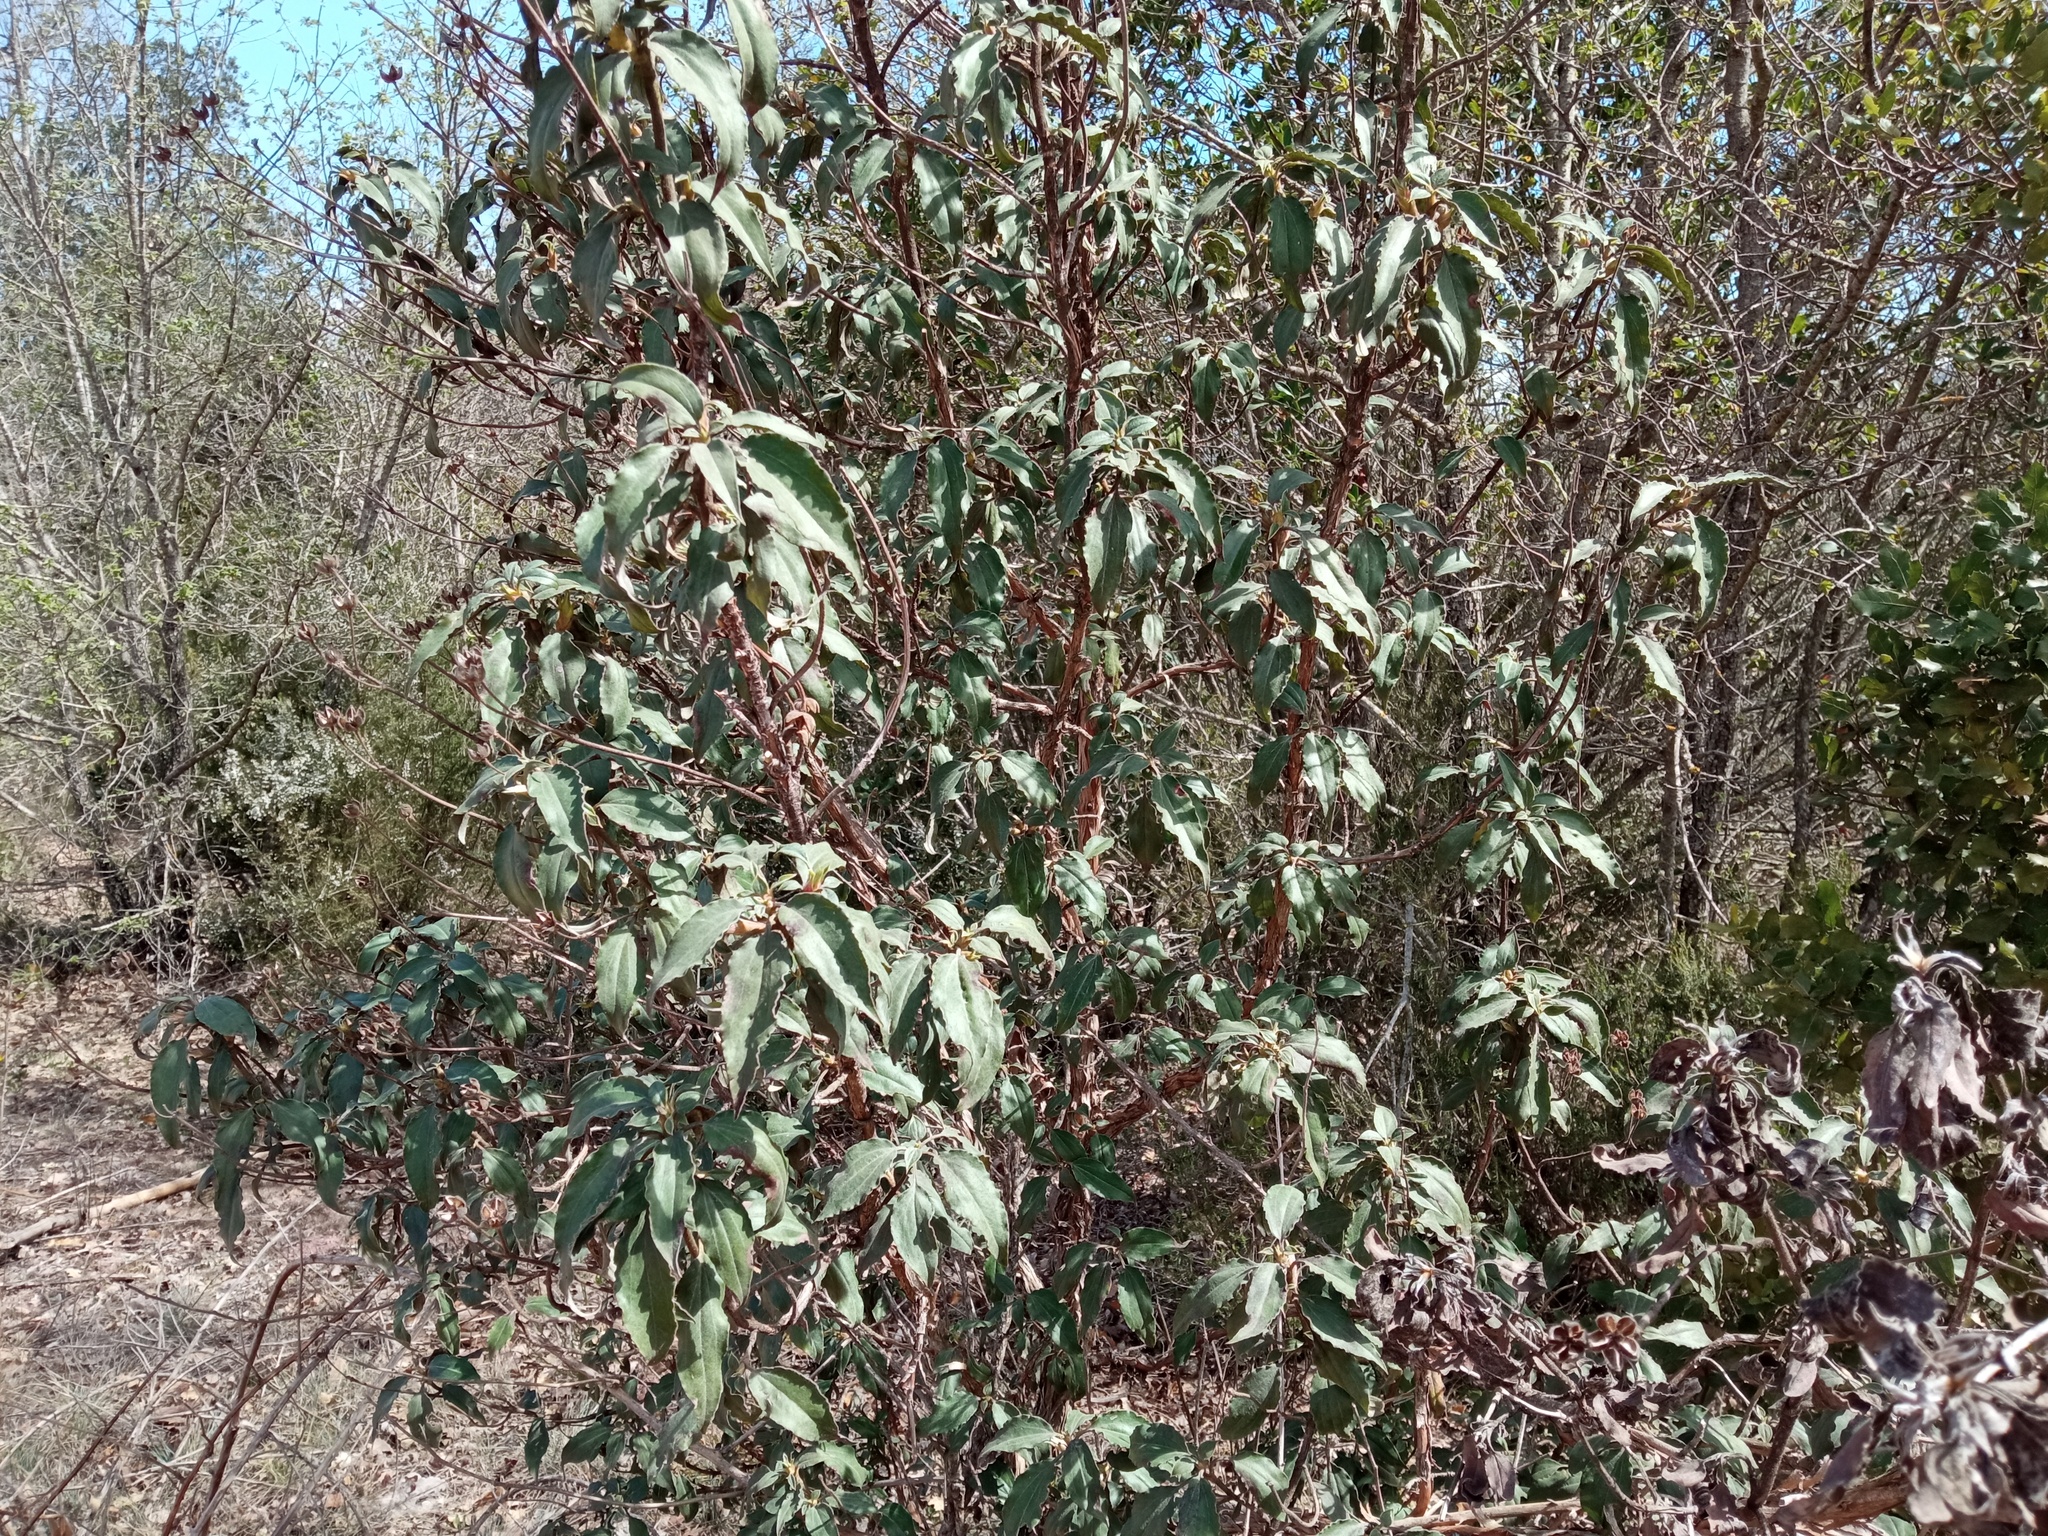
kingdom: Plantae
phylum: Tracheophyta
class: Magnoliopsida
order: Malvales
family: Cistaceae
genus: Cistus
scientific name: Cistus laurifolius
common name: Laurel-leaved cistus
